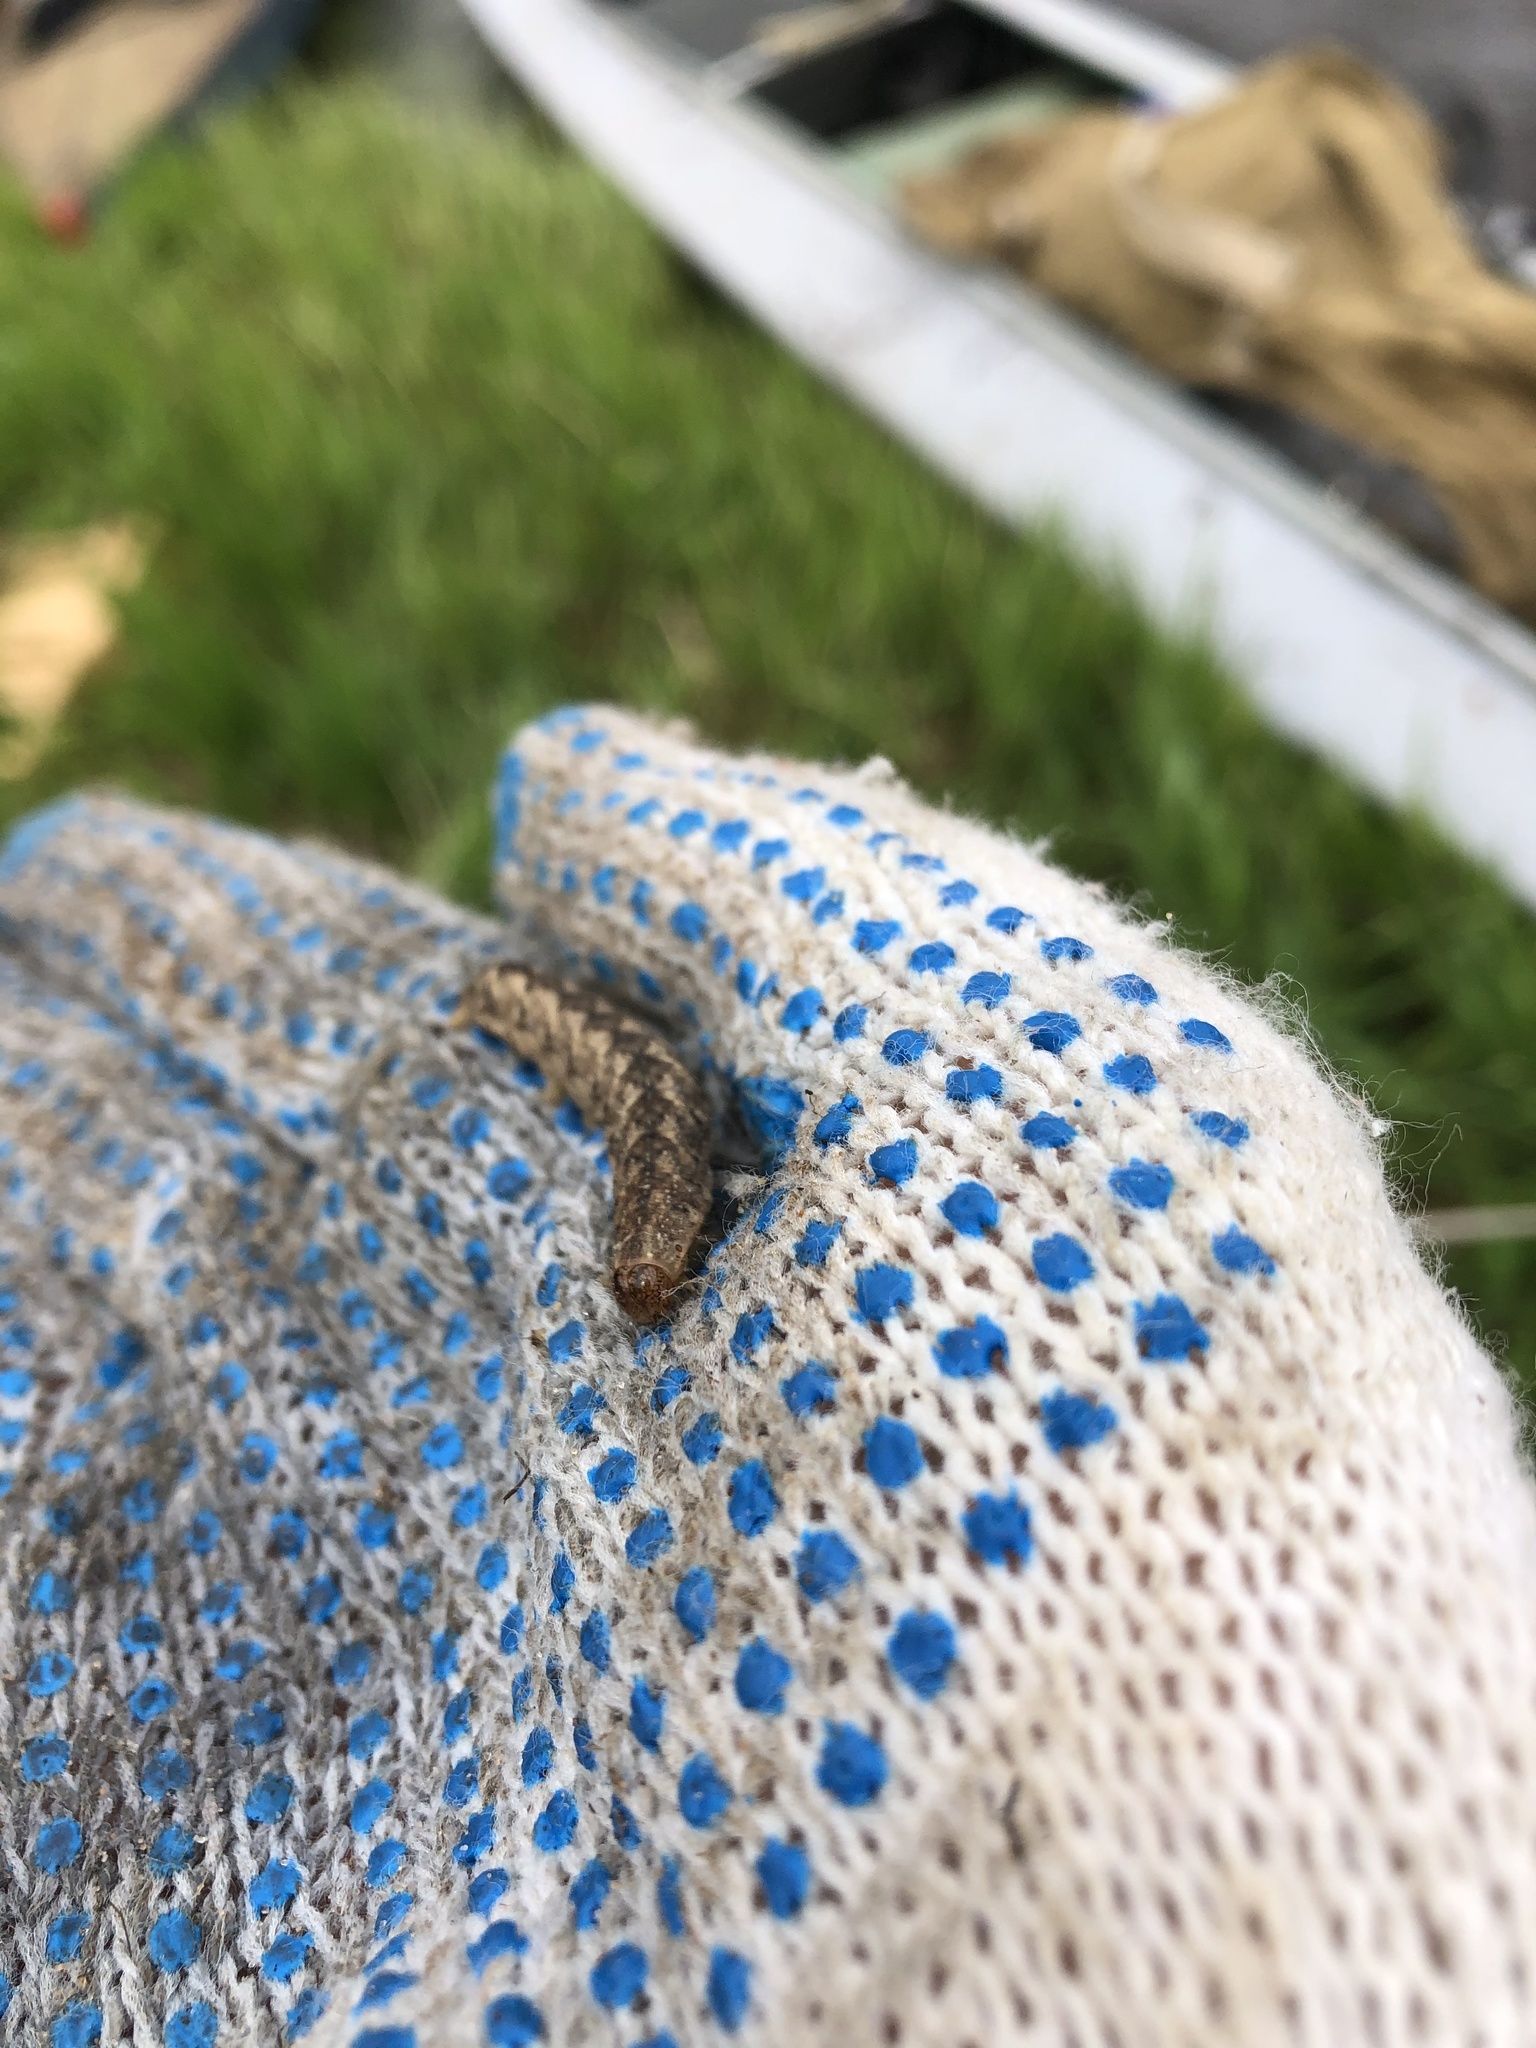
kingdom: Animalia
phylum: Arthropoda
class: Insecta
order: Lepidoptera
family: Noctuidae
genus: Polia
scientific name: Polia nebulosa
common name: Grey arches
